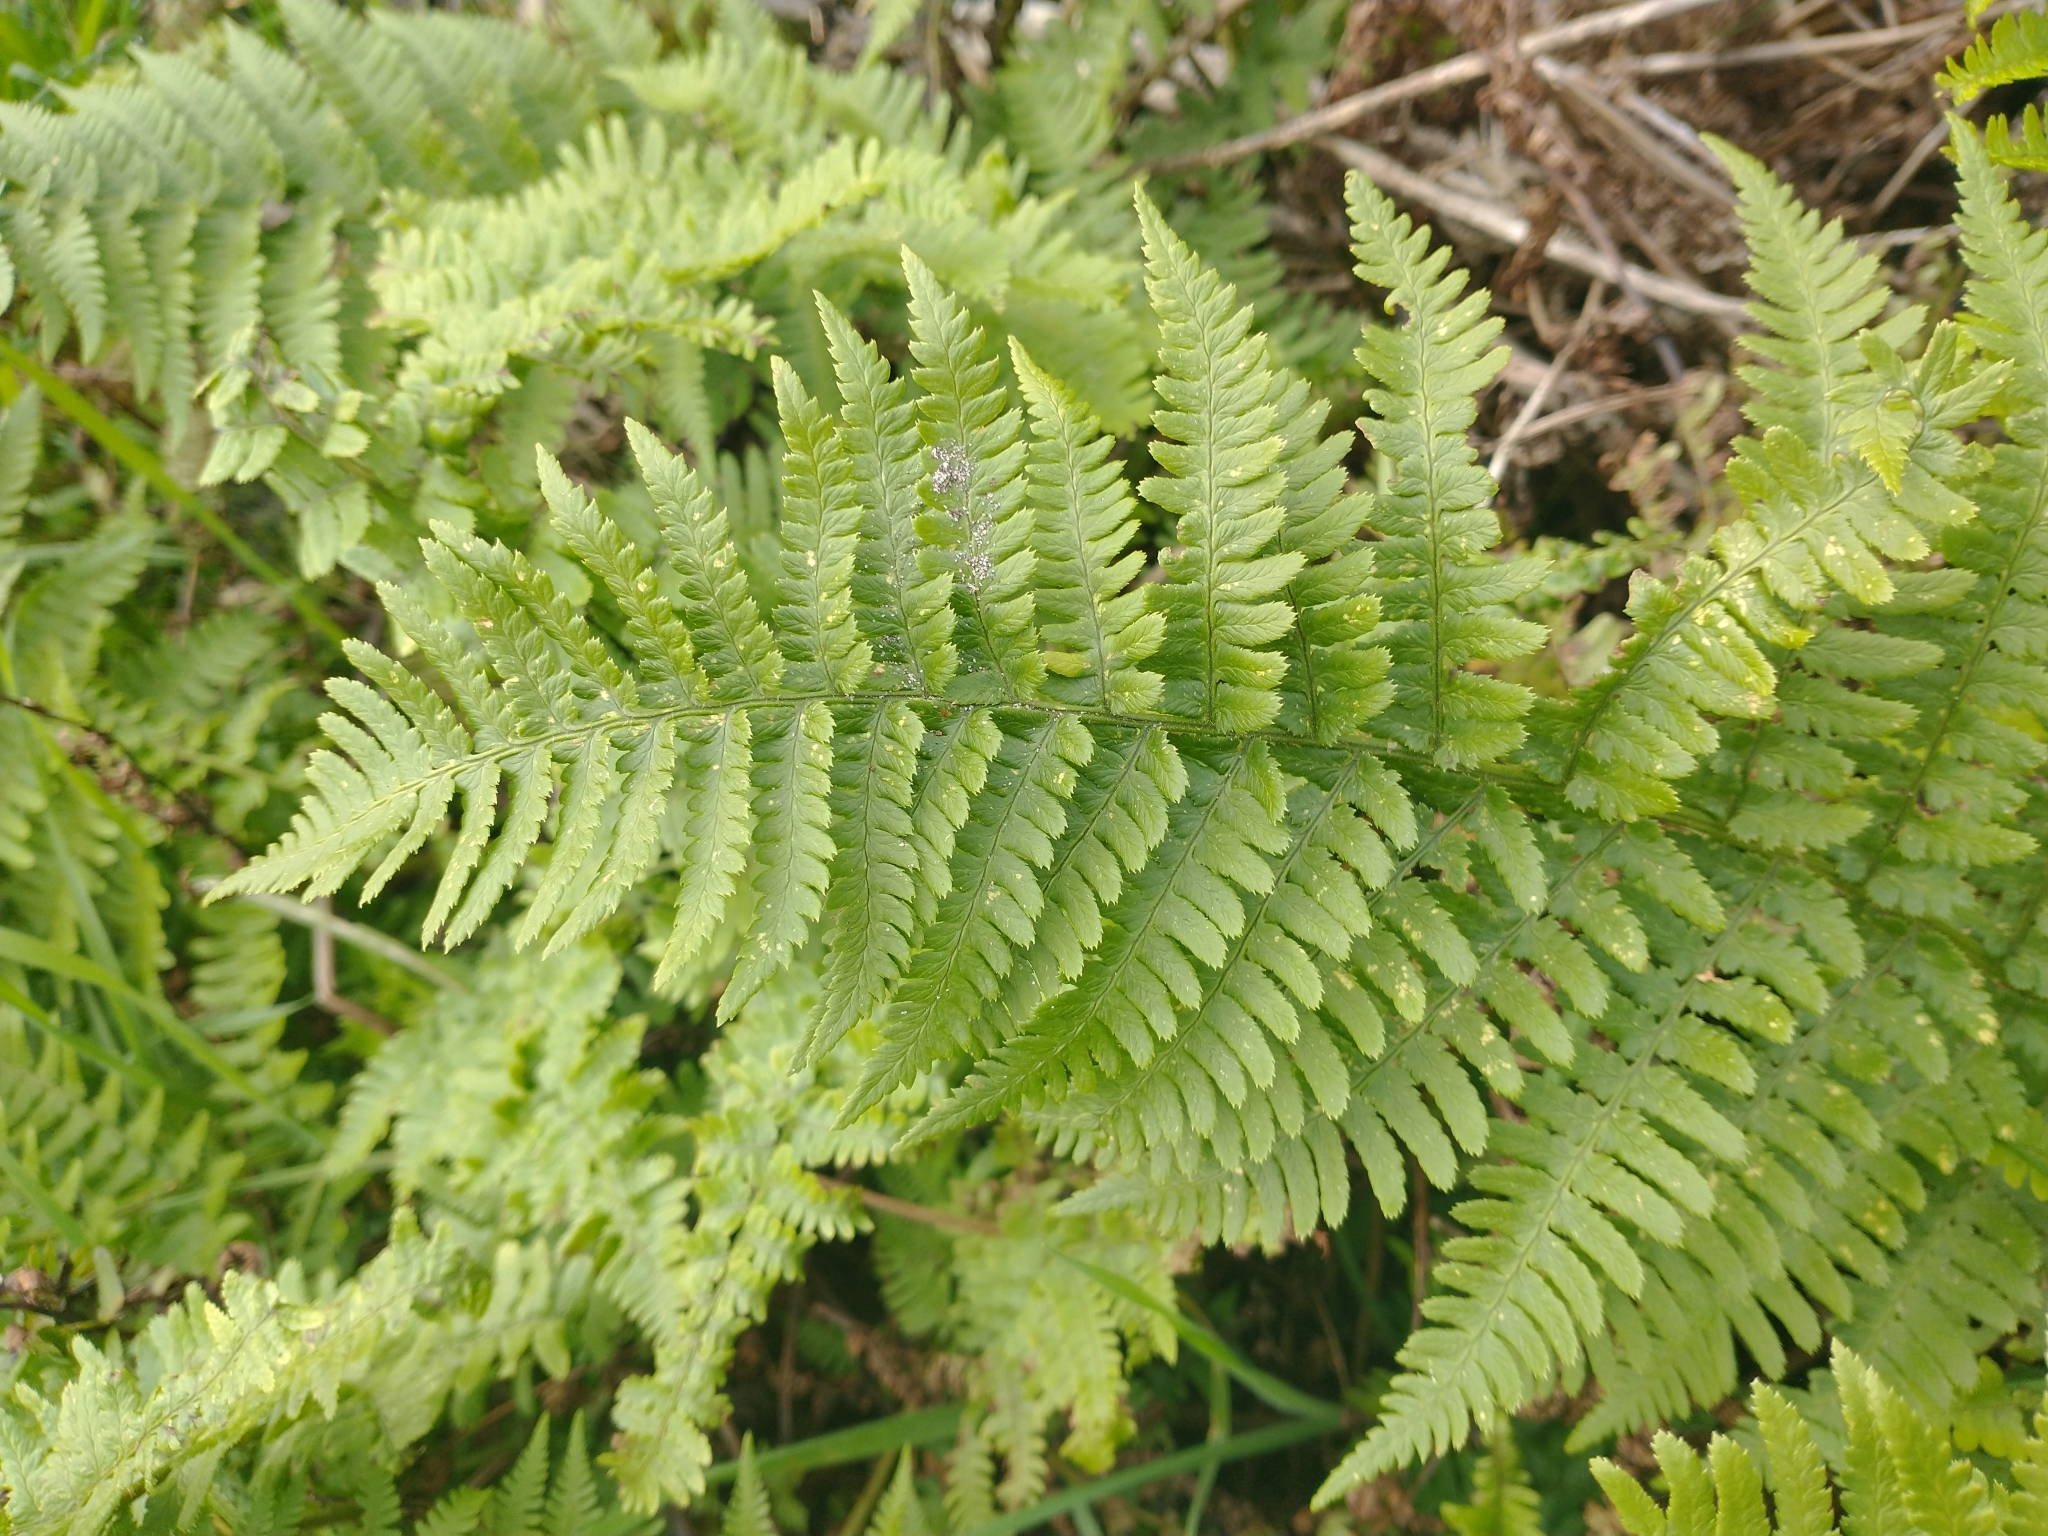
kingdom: Plantae
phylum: Tracheophyta
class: Polypodiopsida
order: Polypodiales
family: Dryopteridaceae
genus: Dryopteris
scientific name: Dryopteris arguta
